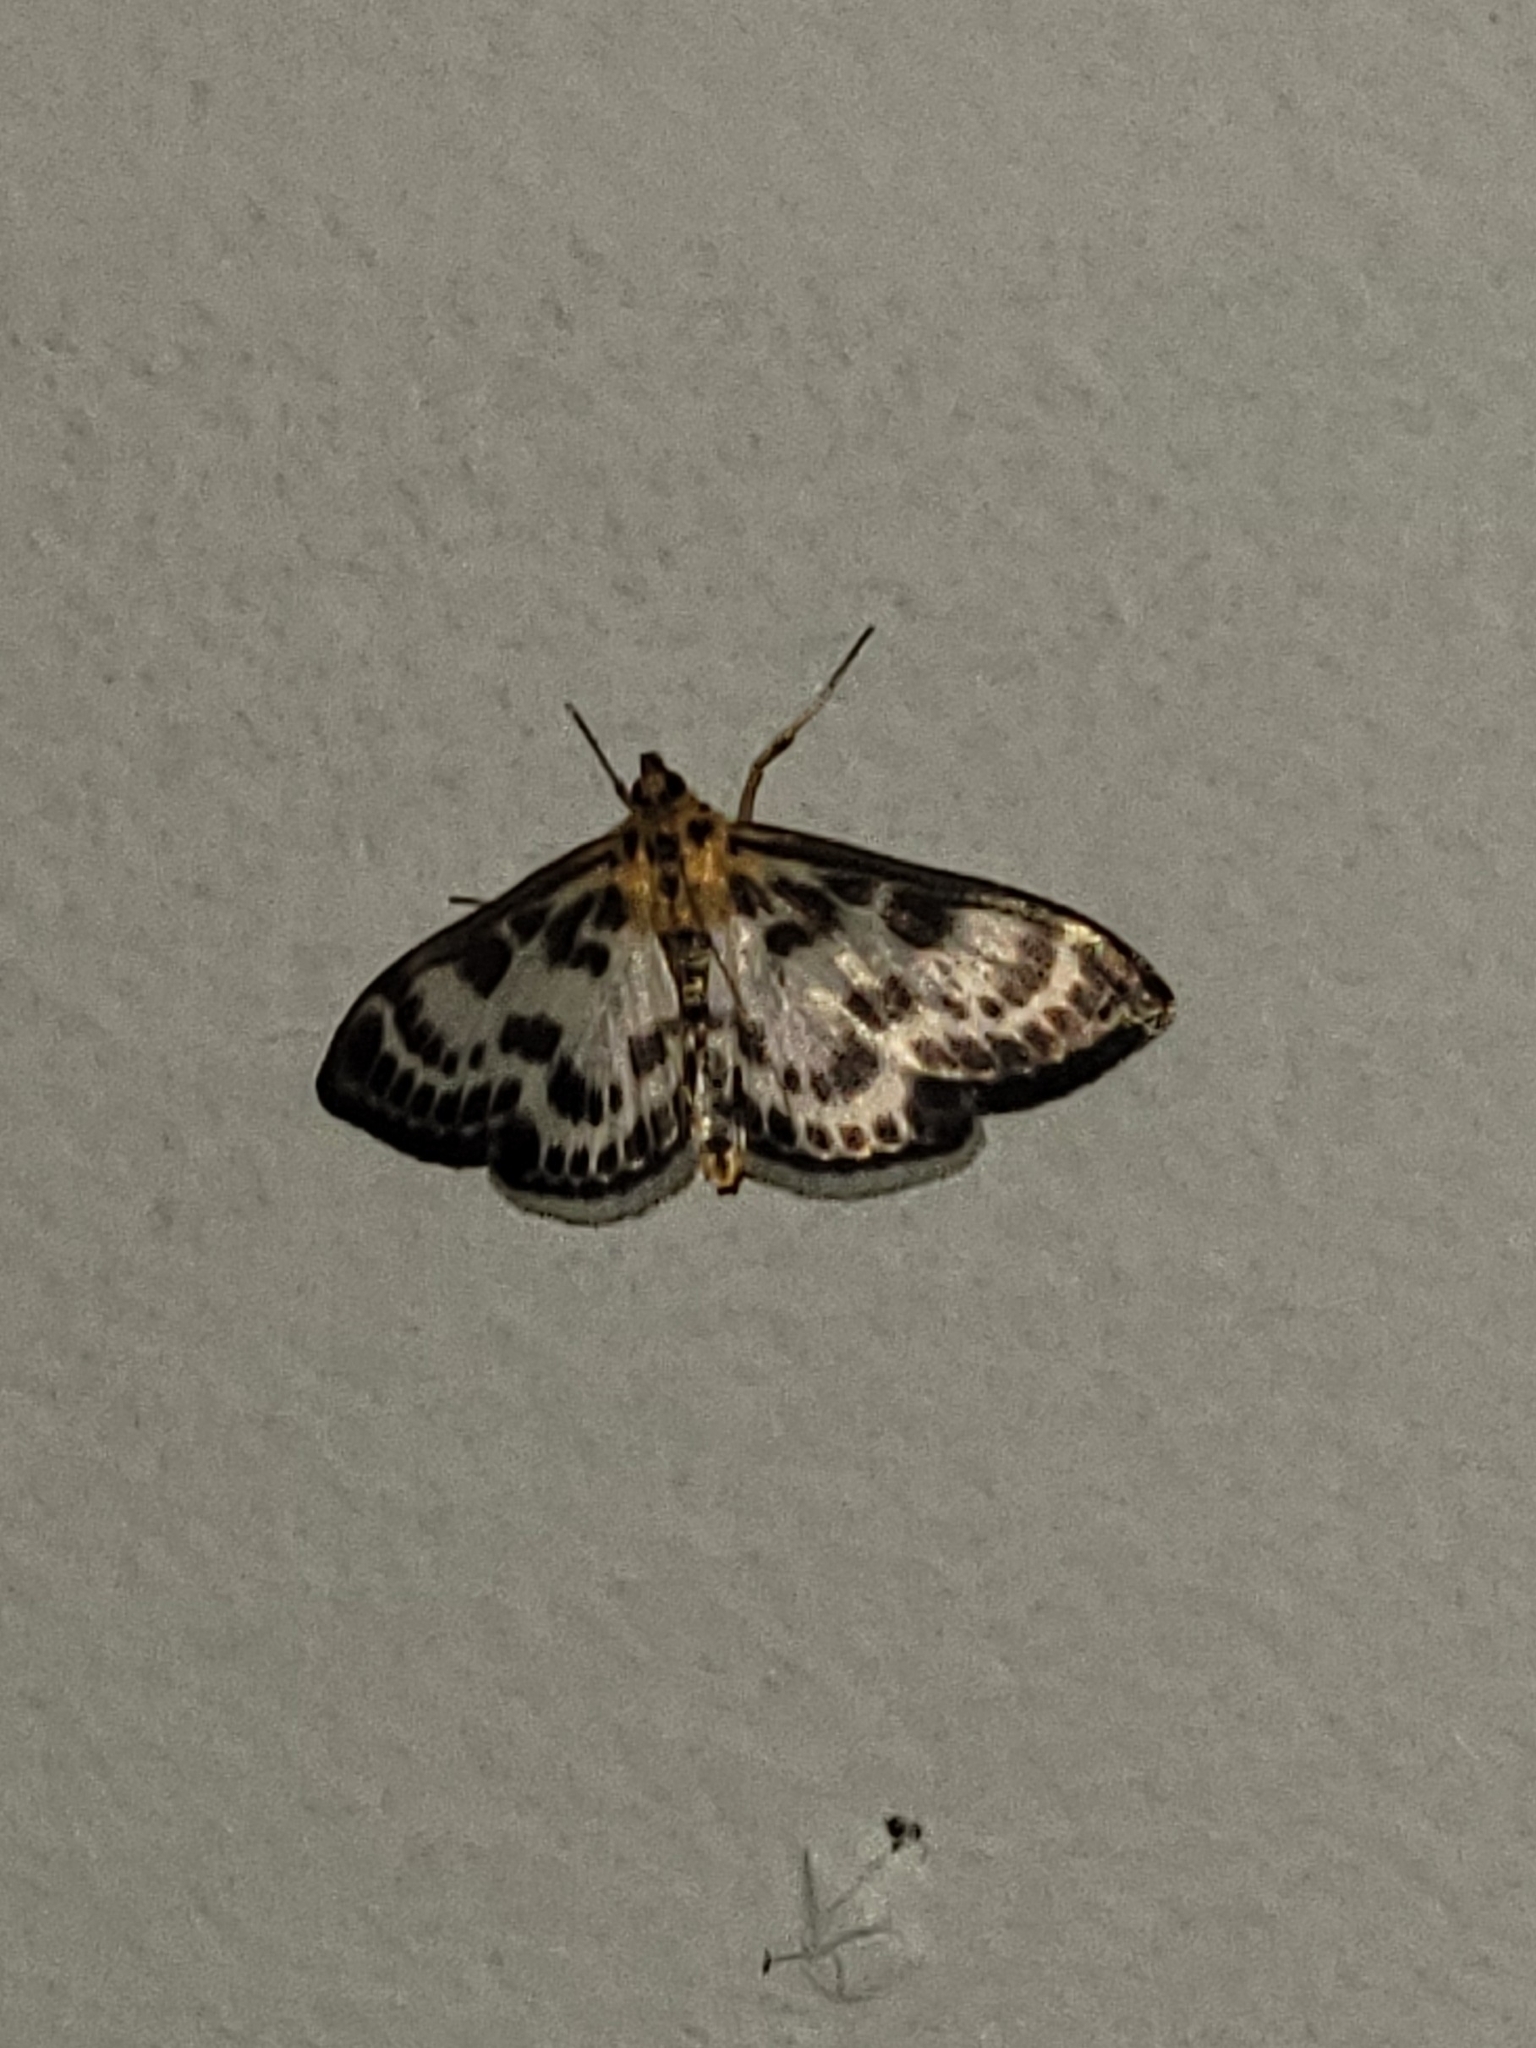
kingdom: Animalia
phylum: Arthropoda
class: Insecta
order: Lepidoptera
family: Crambidae
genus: Anania
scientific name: Anania hortulata
